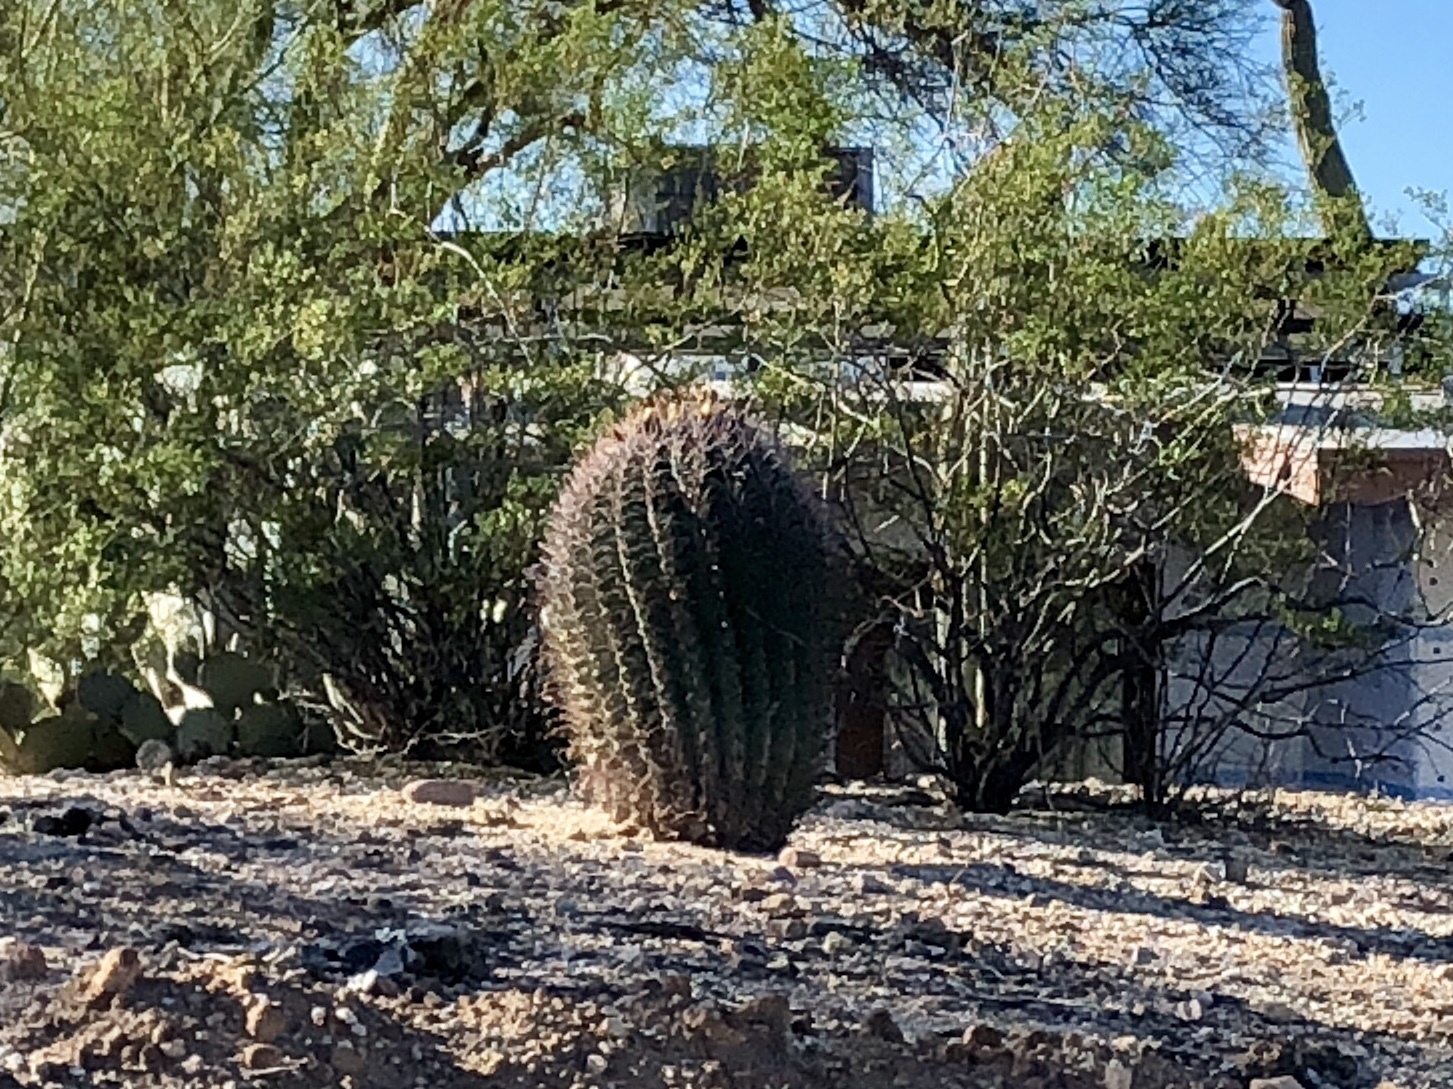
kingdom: Plantae
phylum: Tracheophyta
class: Magnoliopsida
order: Caryophyllales
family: Cactaceae
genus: Ferocactus
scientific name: Ferocactus wislizeni
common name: Candy barrel cactus
